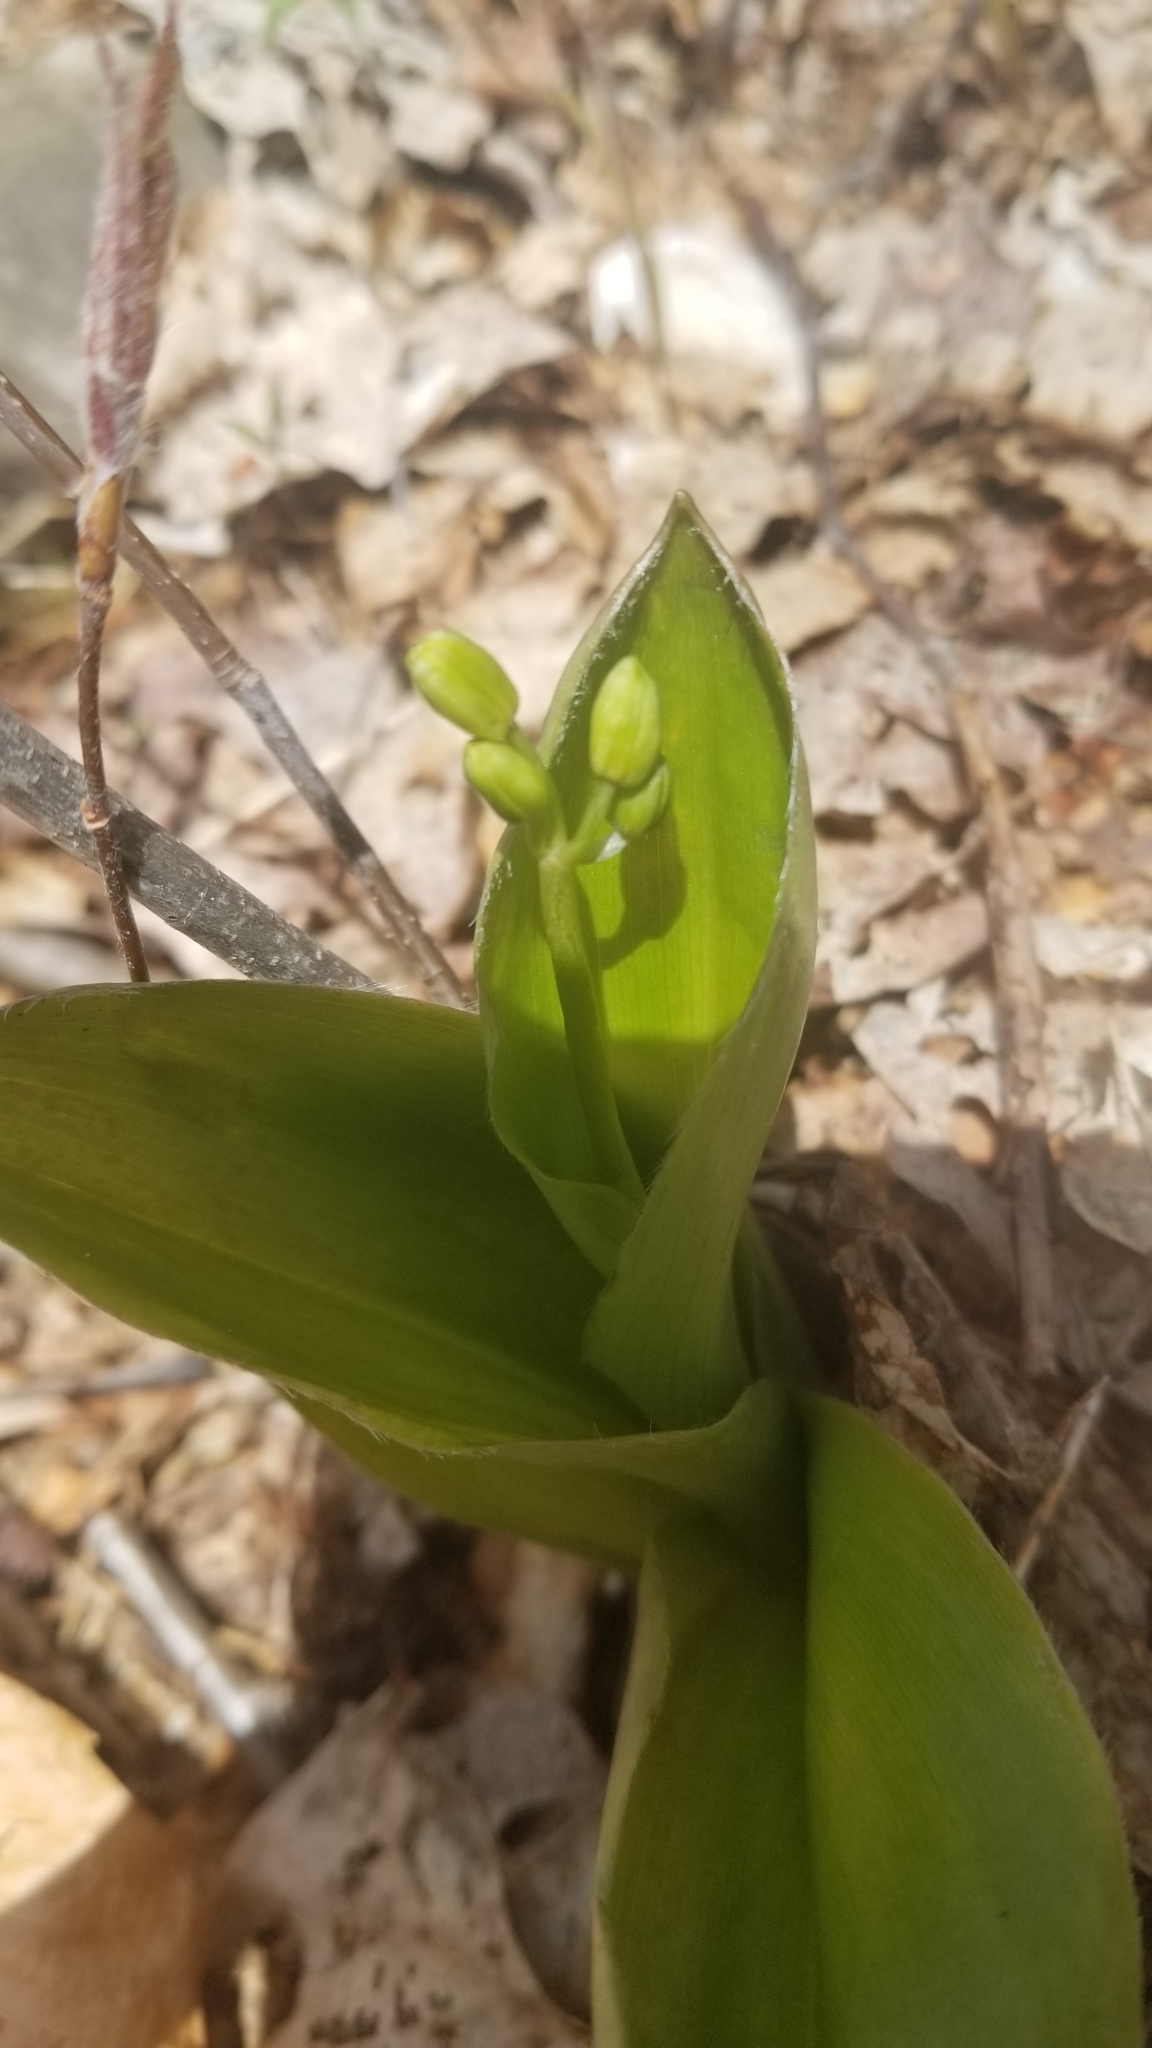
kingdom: Plantae
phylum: Tracheophyta
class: Liliopsida
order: Liliales
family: Liliaceae
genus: Clintonia
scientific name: Clintonia borealis
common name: Yellow clintonia
